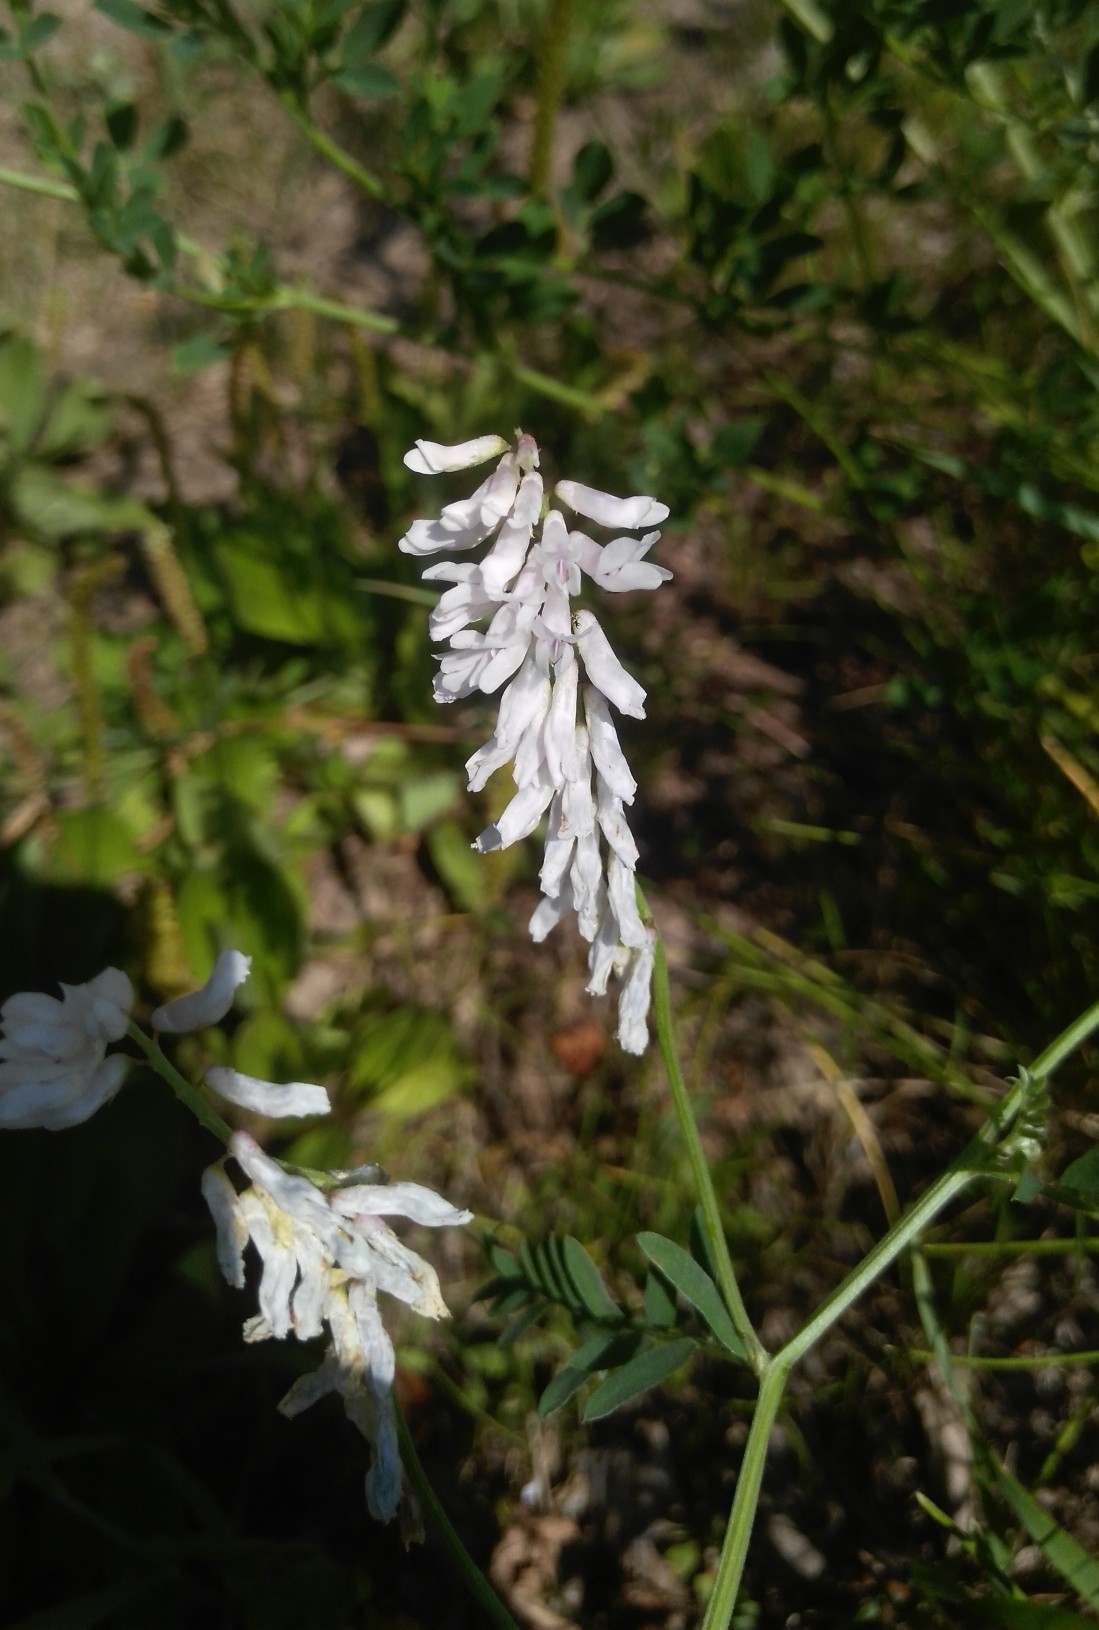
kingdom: Plantae
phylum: Tracheophyta
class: Magnoliopsida
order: Fabales
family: Fabaceae
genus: Vicia
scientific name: Vicia cracca
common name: Bird vetch
